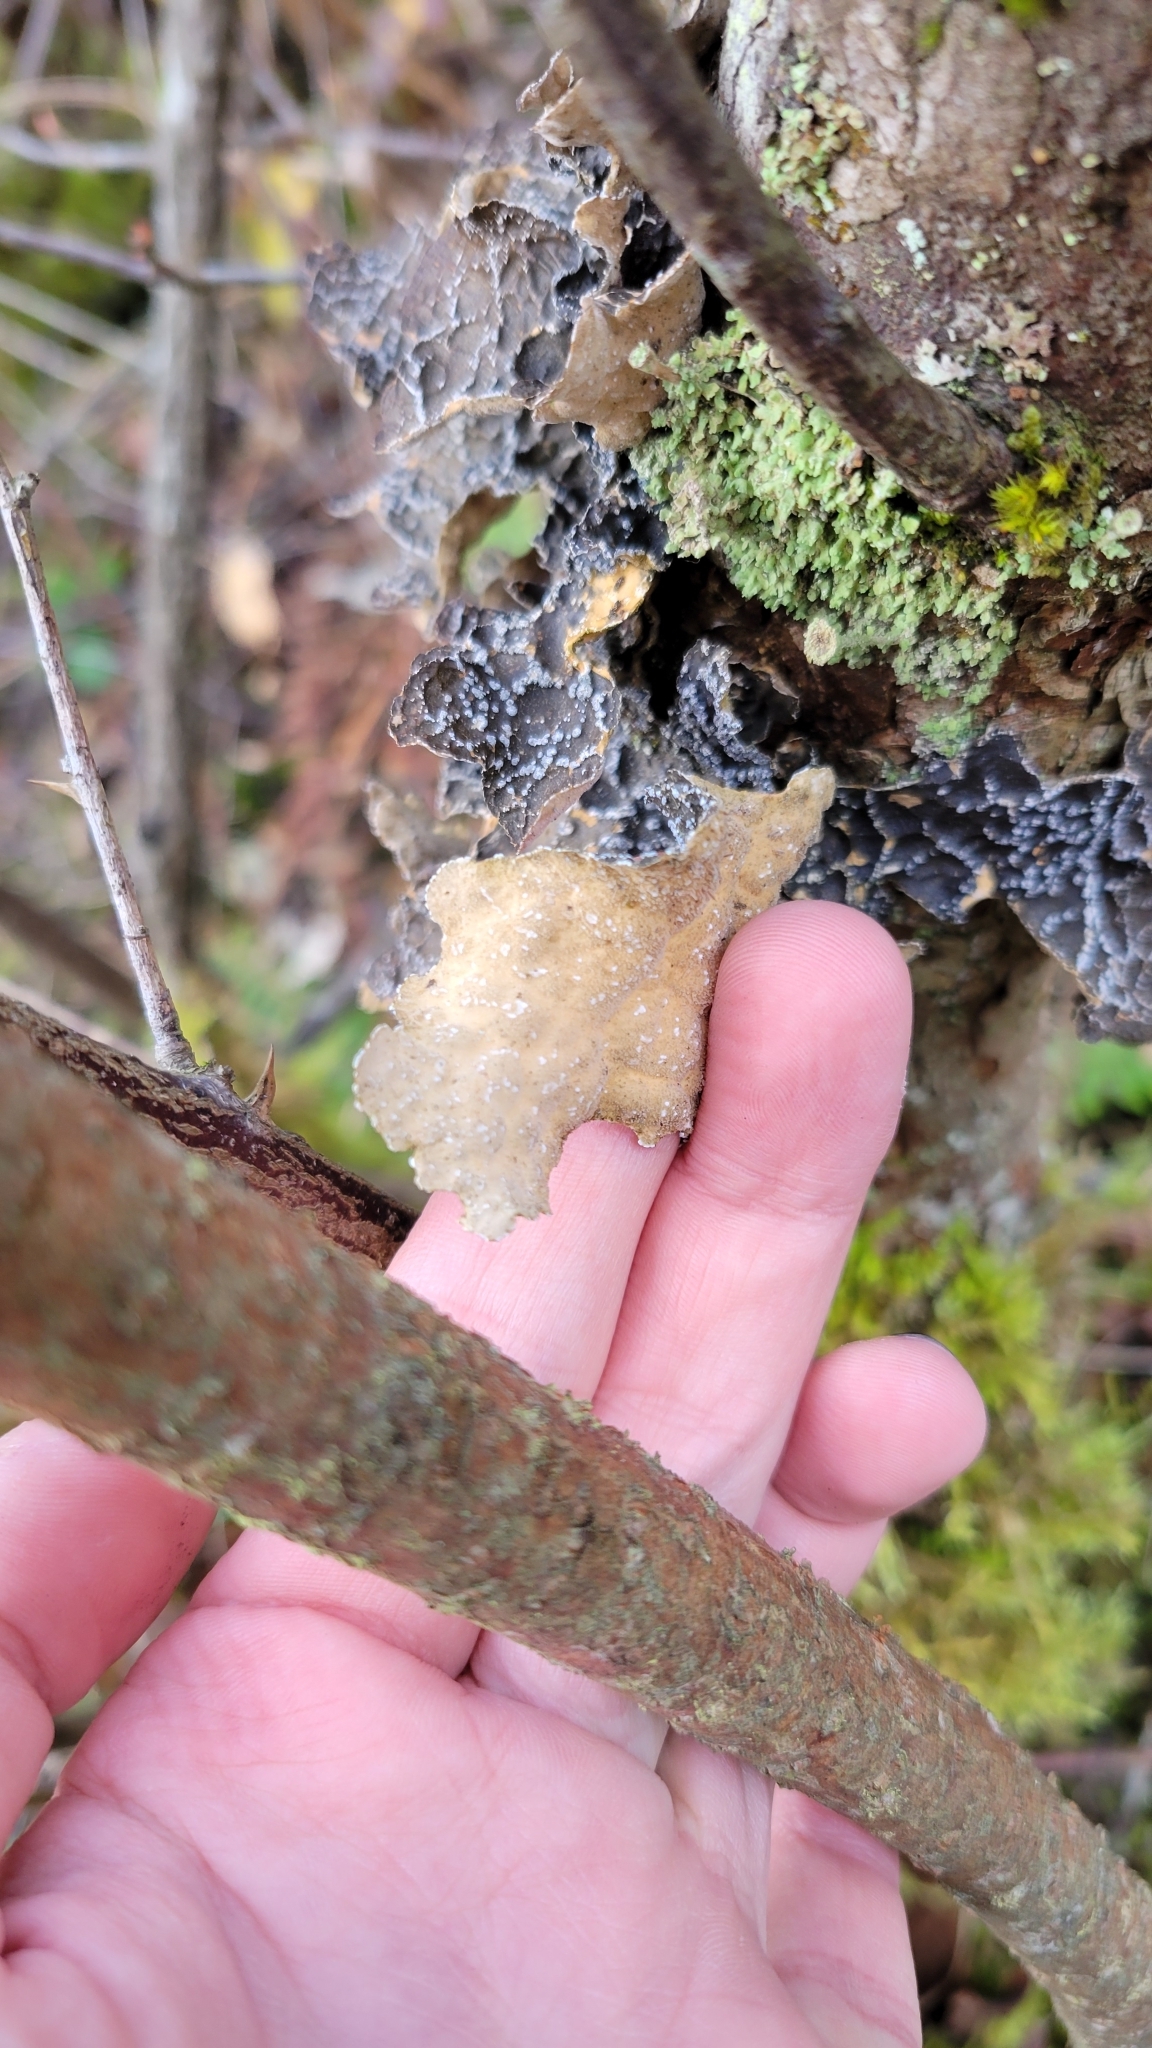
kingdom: Fungi
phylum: Ascomycota
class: Lecanoromycetes
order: Peltigerales
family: Lobariaceae
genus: Lobaria
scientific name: Lobaria anomala
